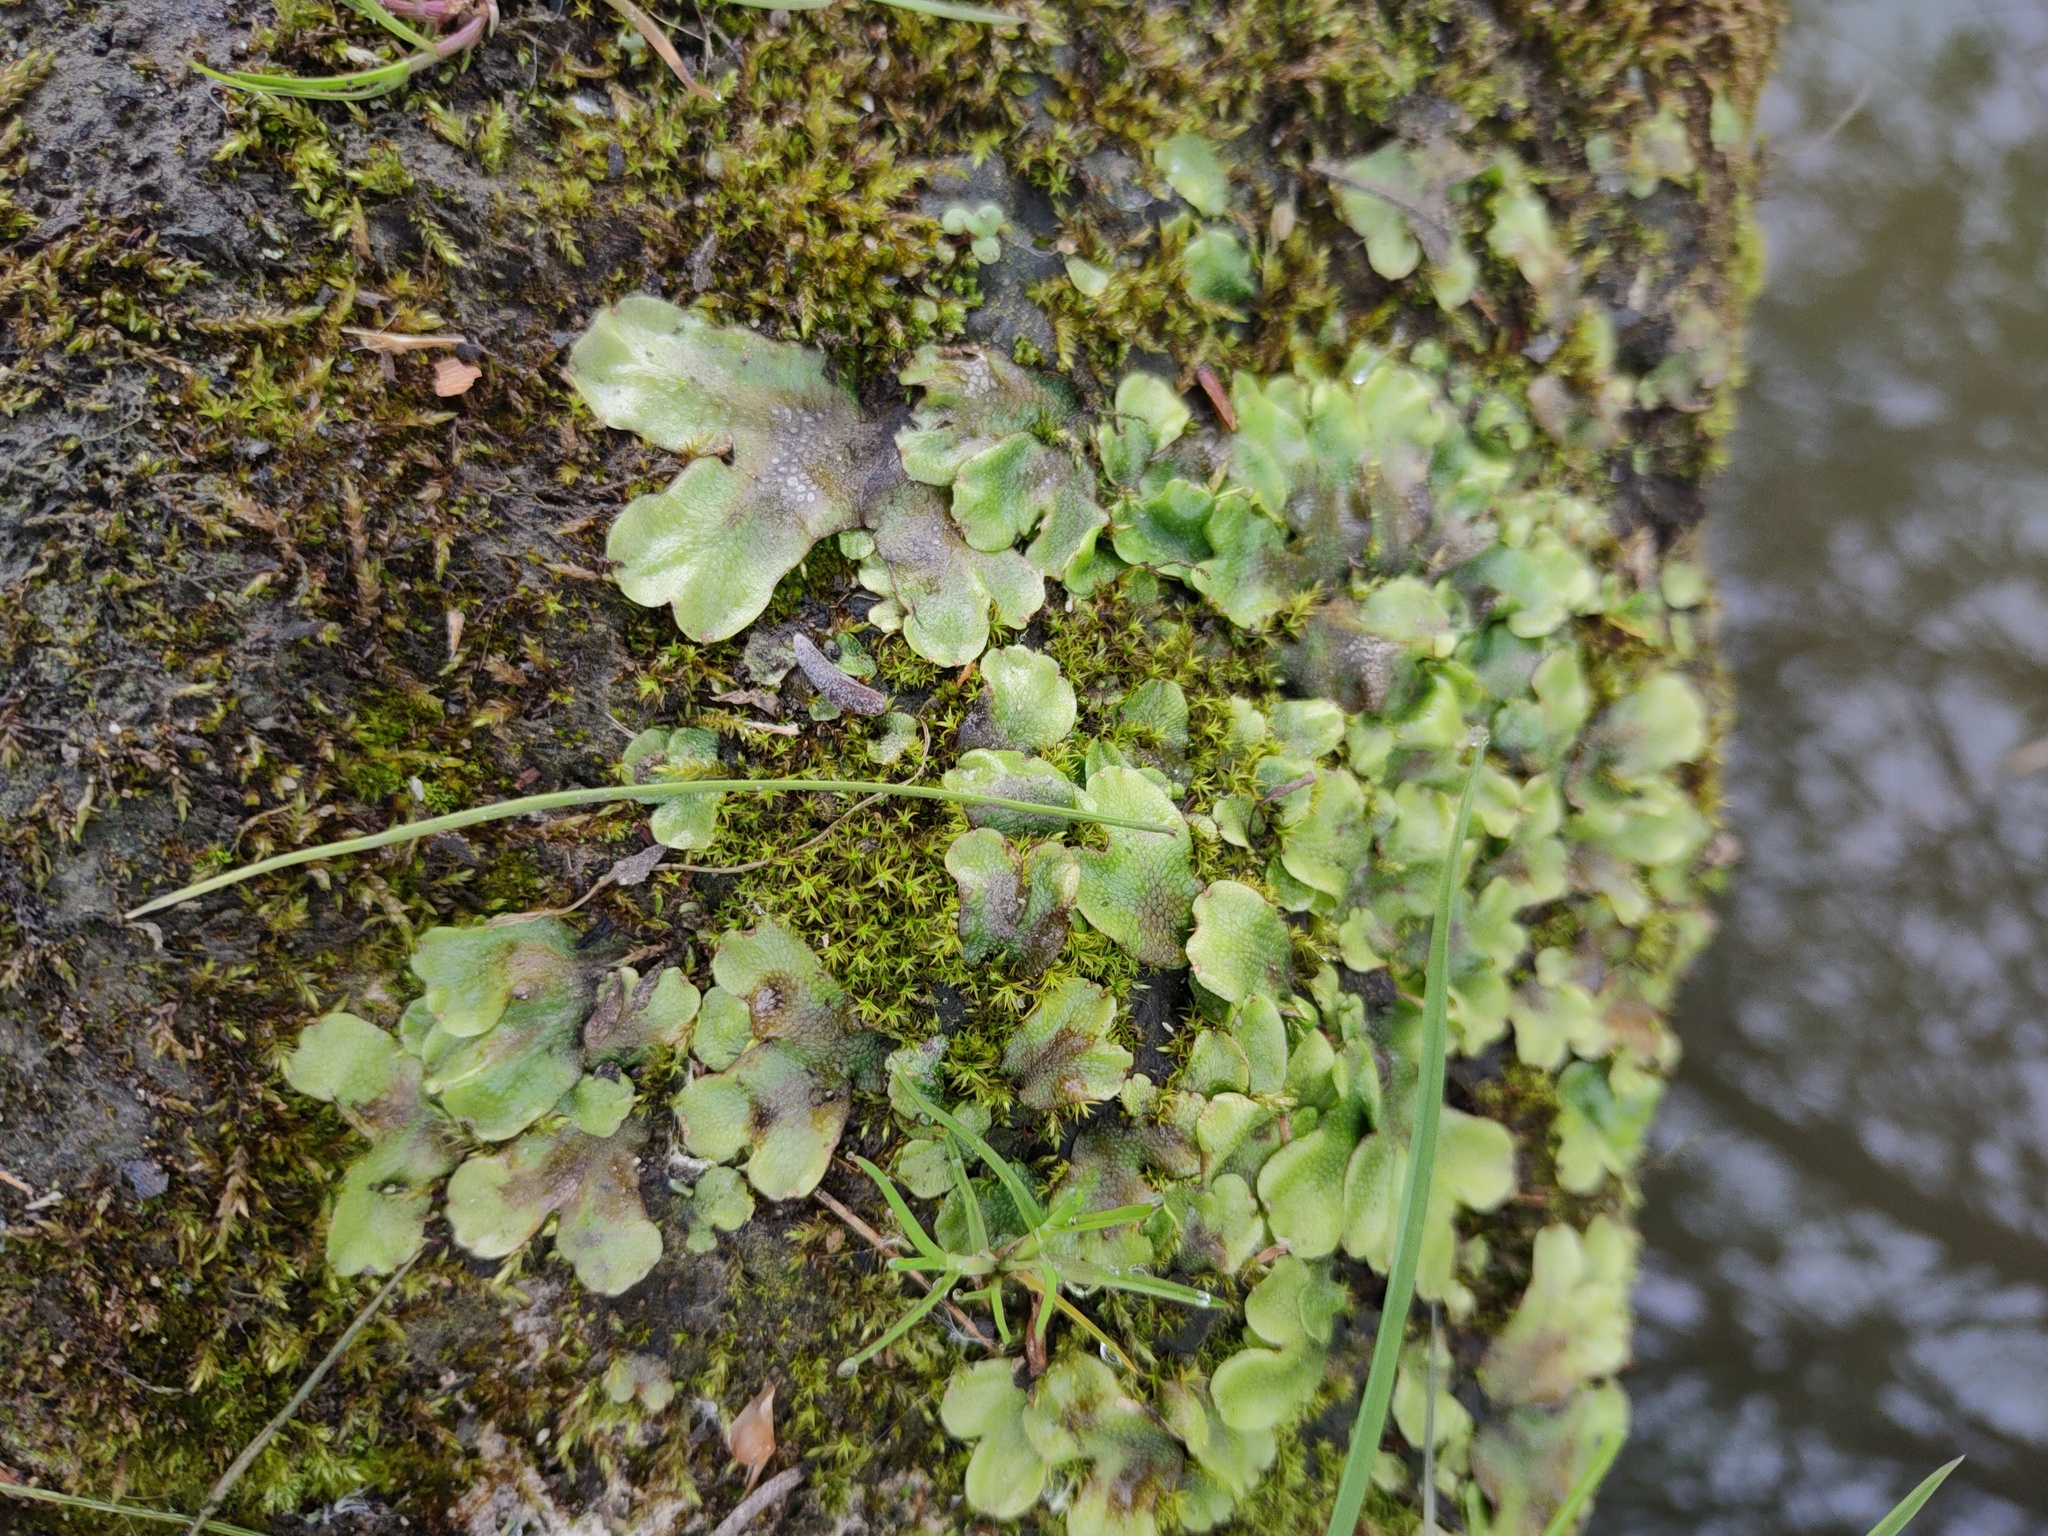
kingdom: Plantae
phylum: Marchantiophyta
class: Marchantiopsida
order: Marchantiales
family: Conocephalaceae
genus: Conocephalum
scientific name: Conocephalum conicum
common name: Great scented liverwort
